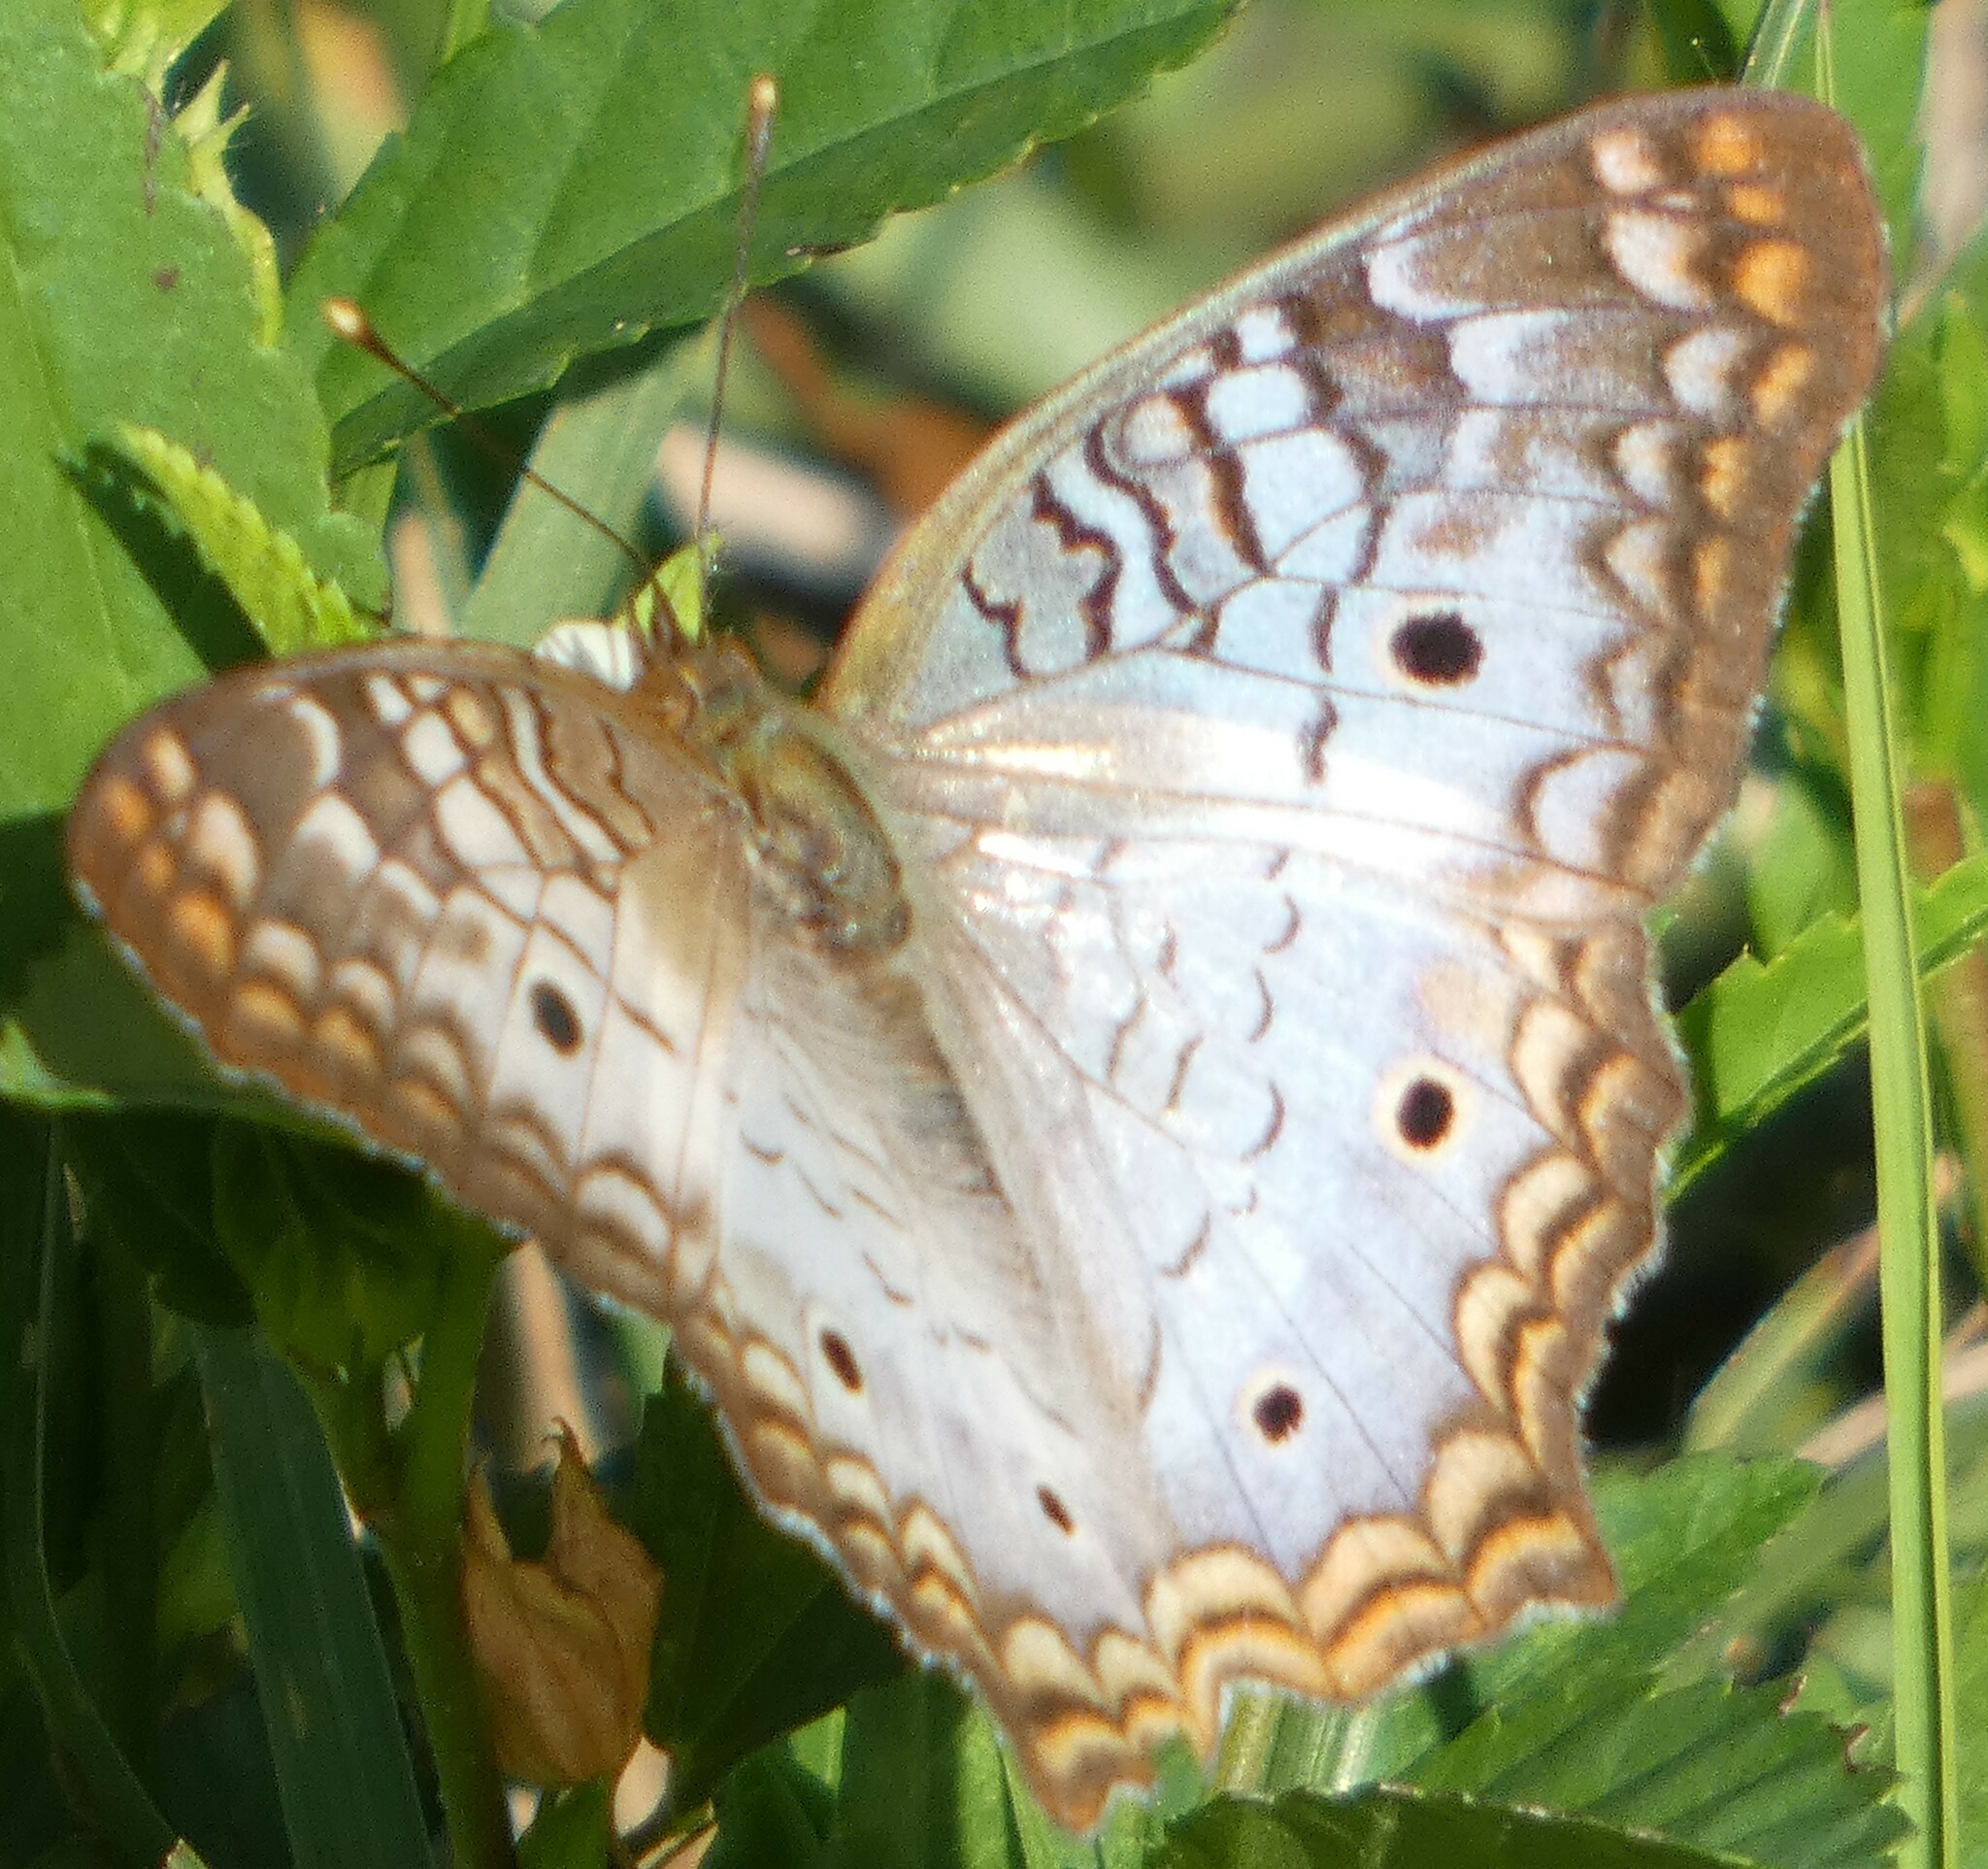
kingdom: Animalia
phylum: Arthropoda
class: Insecta
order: Lepidoptera
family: Nymphalidae
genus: Anartia
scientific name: Anartia jatrophae
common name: White peacock
